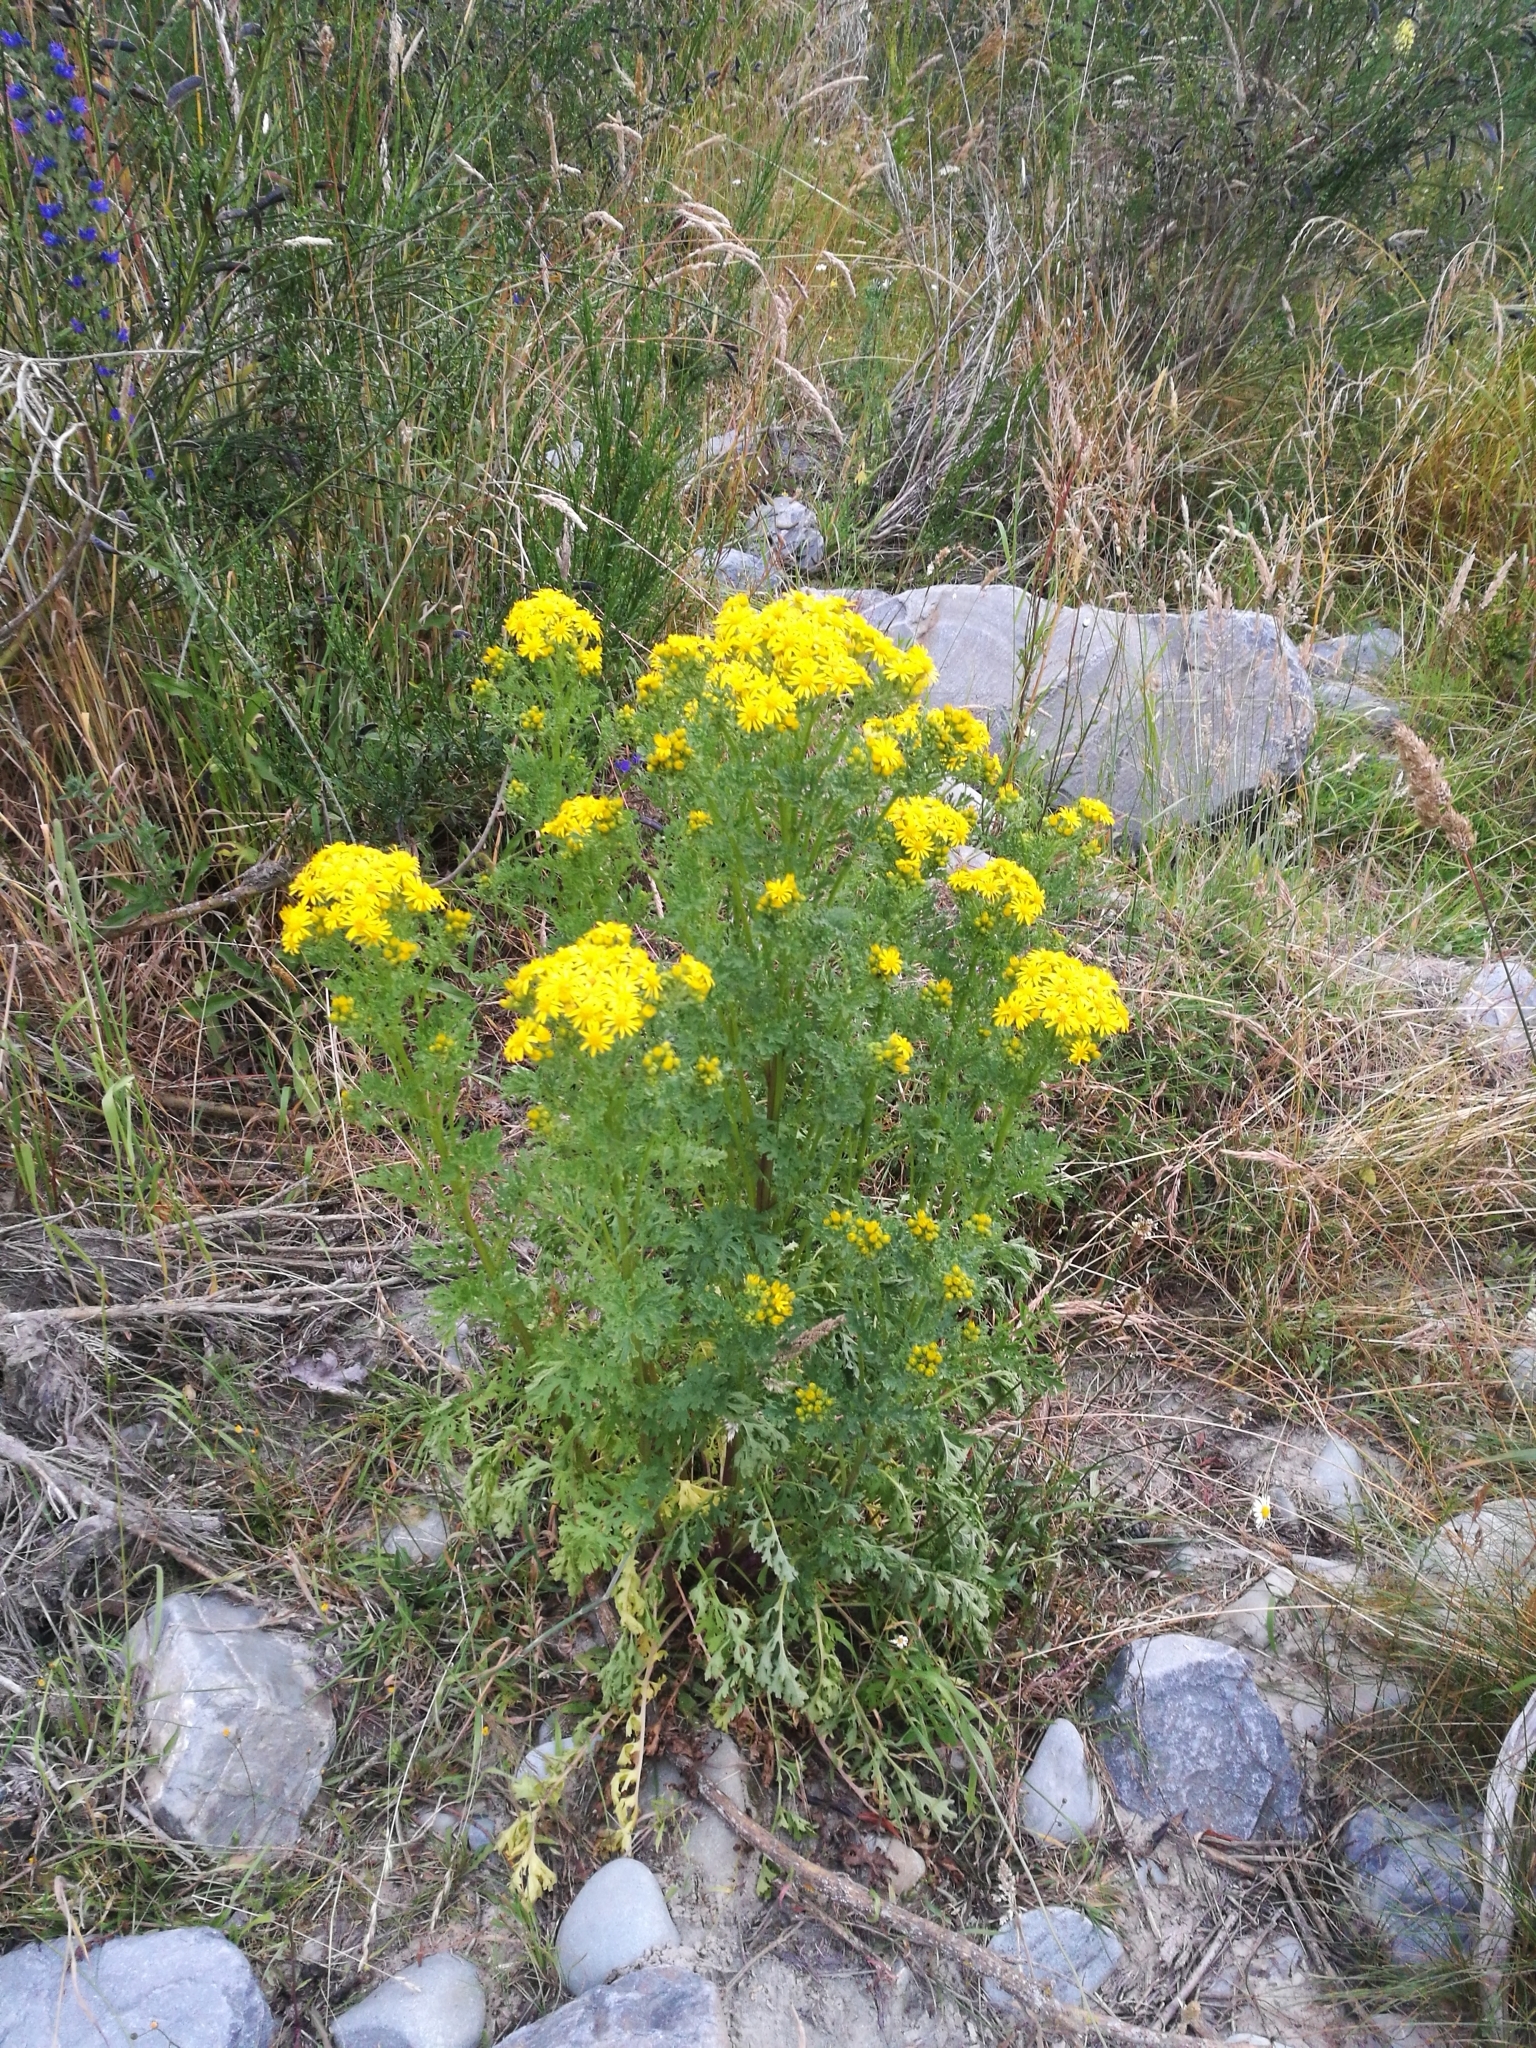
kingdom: Plantae
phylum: Tracheophyta
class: Magnoliopsida
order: Asterales
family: Asteraceae
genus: Jacobaea
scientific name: Jacobaea vulgaris
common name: Stinking willie
